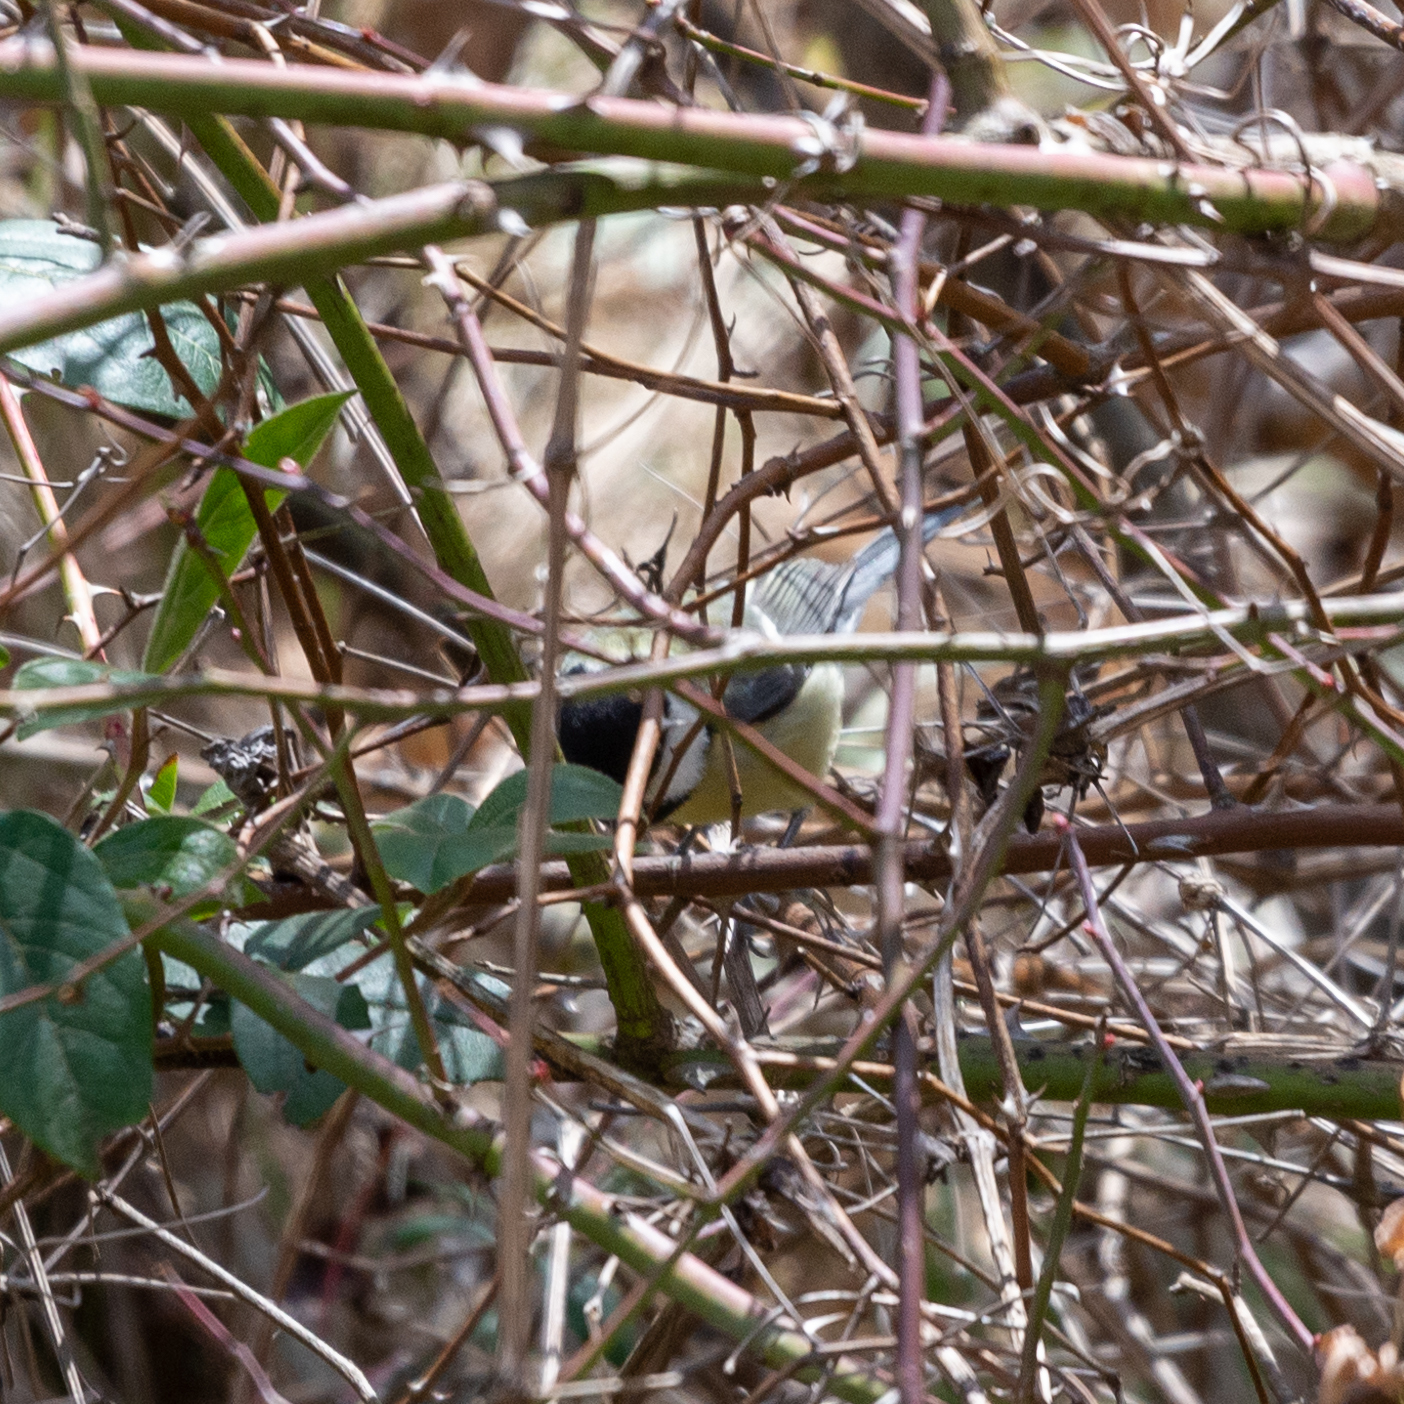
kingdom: Animalia
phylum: Chordata
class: Aves
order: Passeriformes
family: Paridae
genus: Parus
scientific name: Parus major
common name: Great tit
